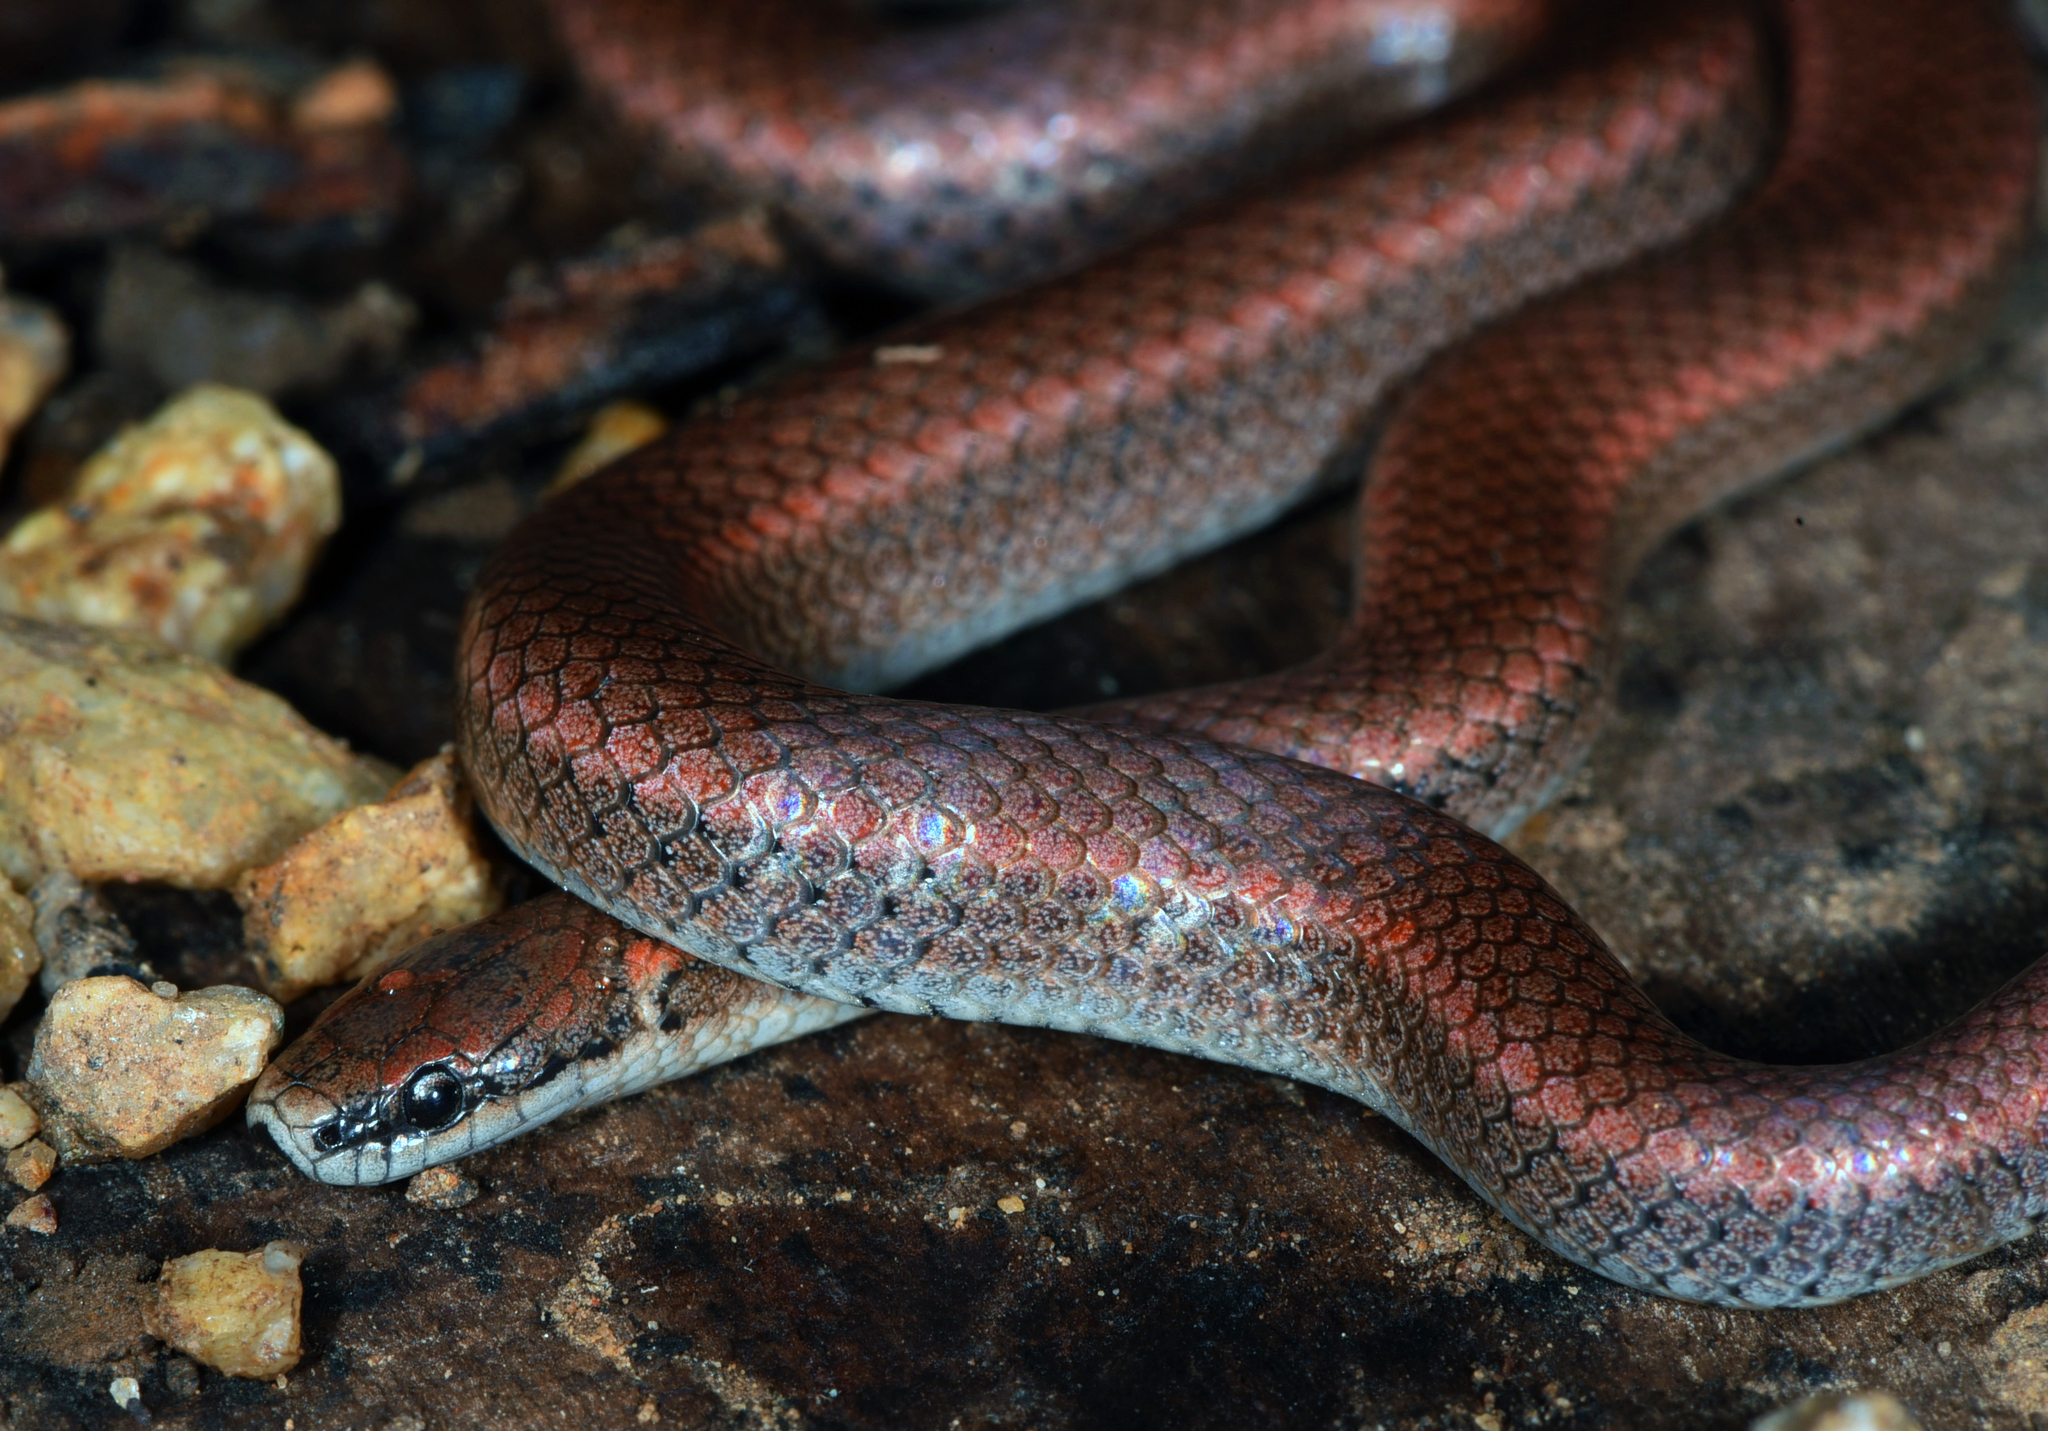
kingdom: Animalia
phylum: Chordata
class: Squamata
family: Colubridae
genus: Contia
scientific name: Contia tenuis
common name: Sharptail snake
